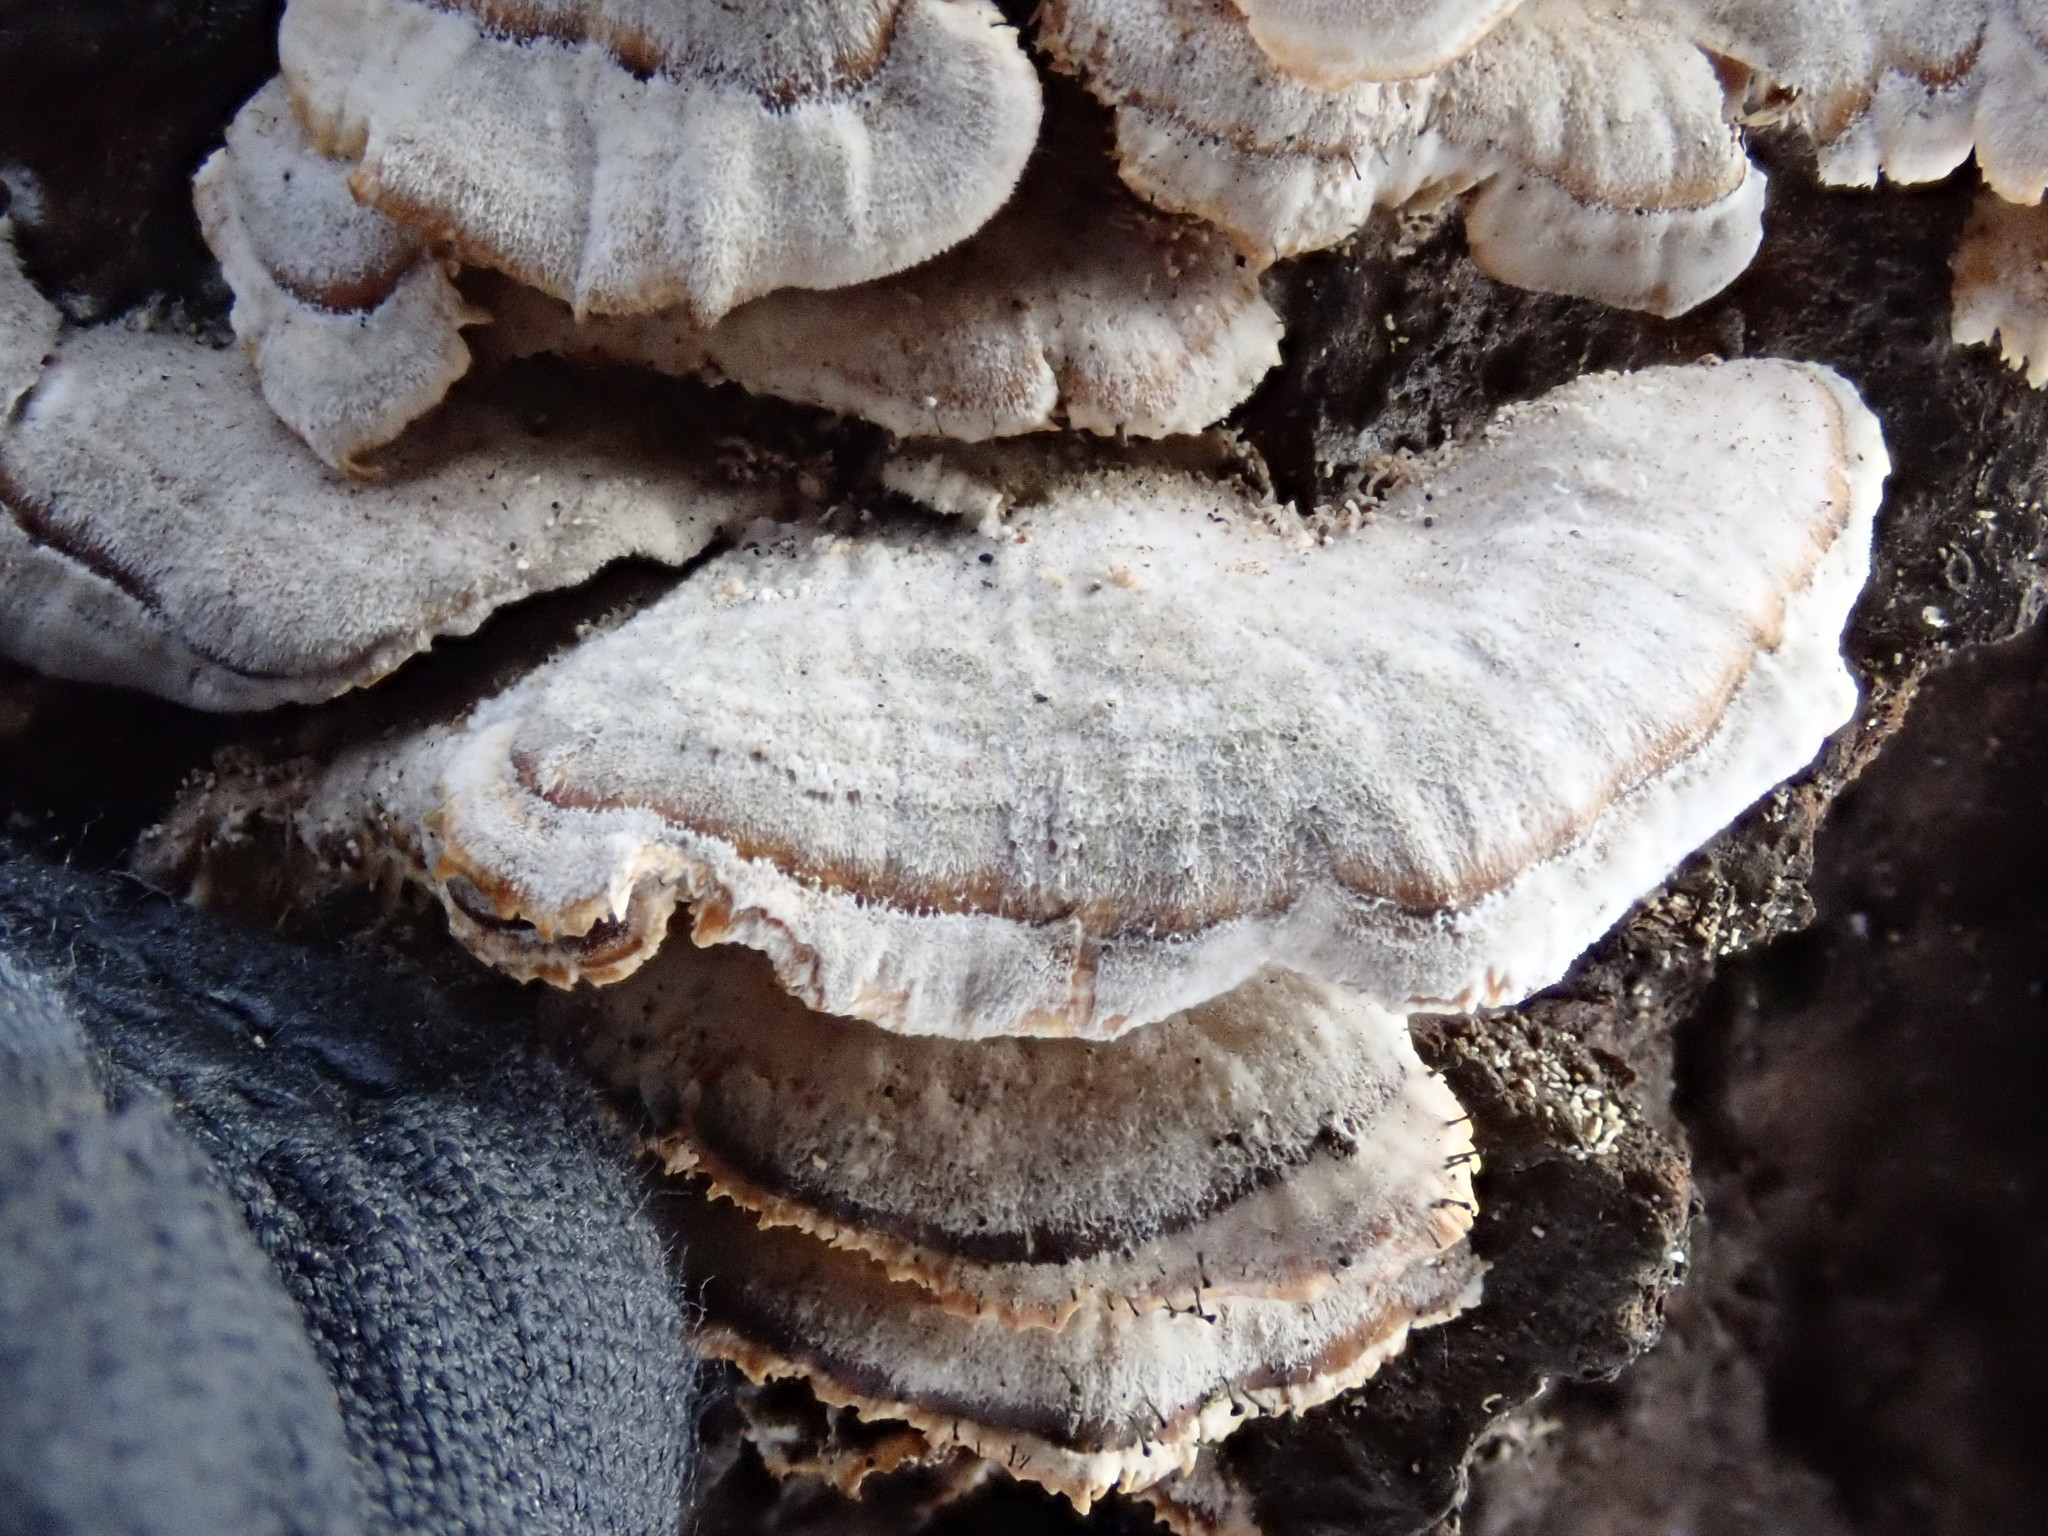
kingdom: Fungi
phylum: Basidiomycota
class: Agaricomycetes
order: Hymenochaetales
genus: Trichaptum
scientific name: Trichaptum biforme
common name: Violet-toothed polypore
